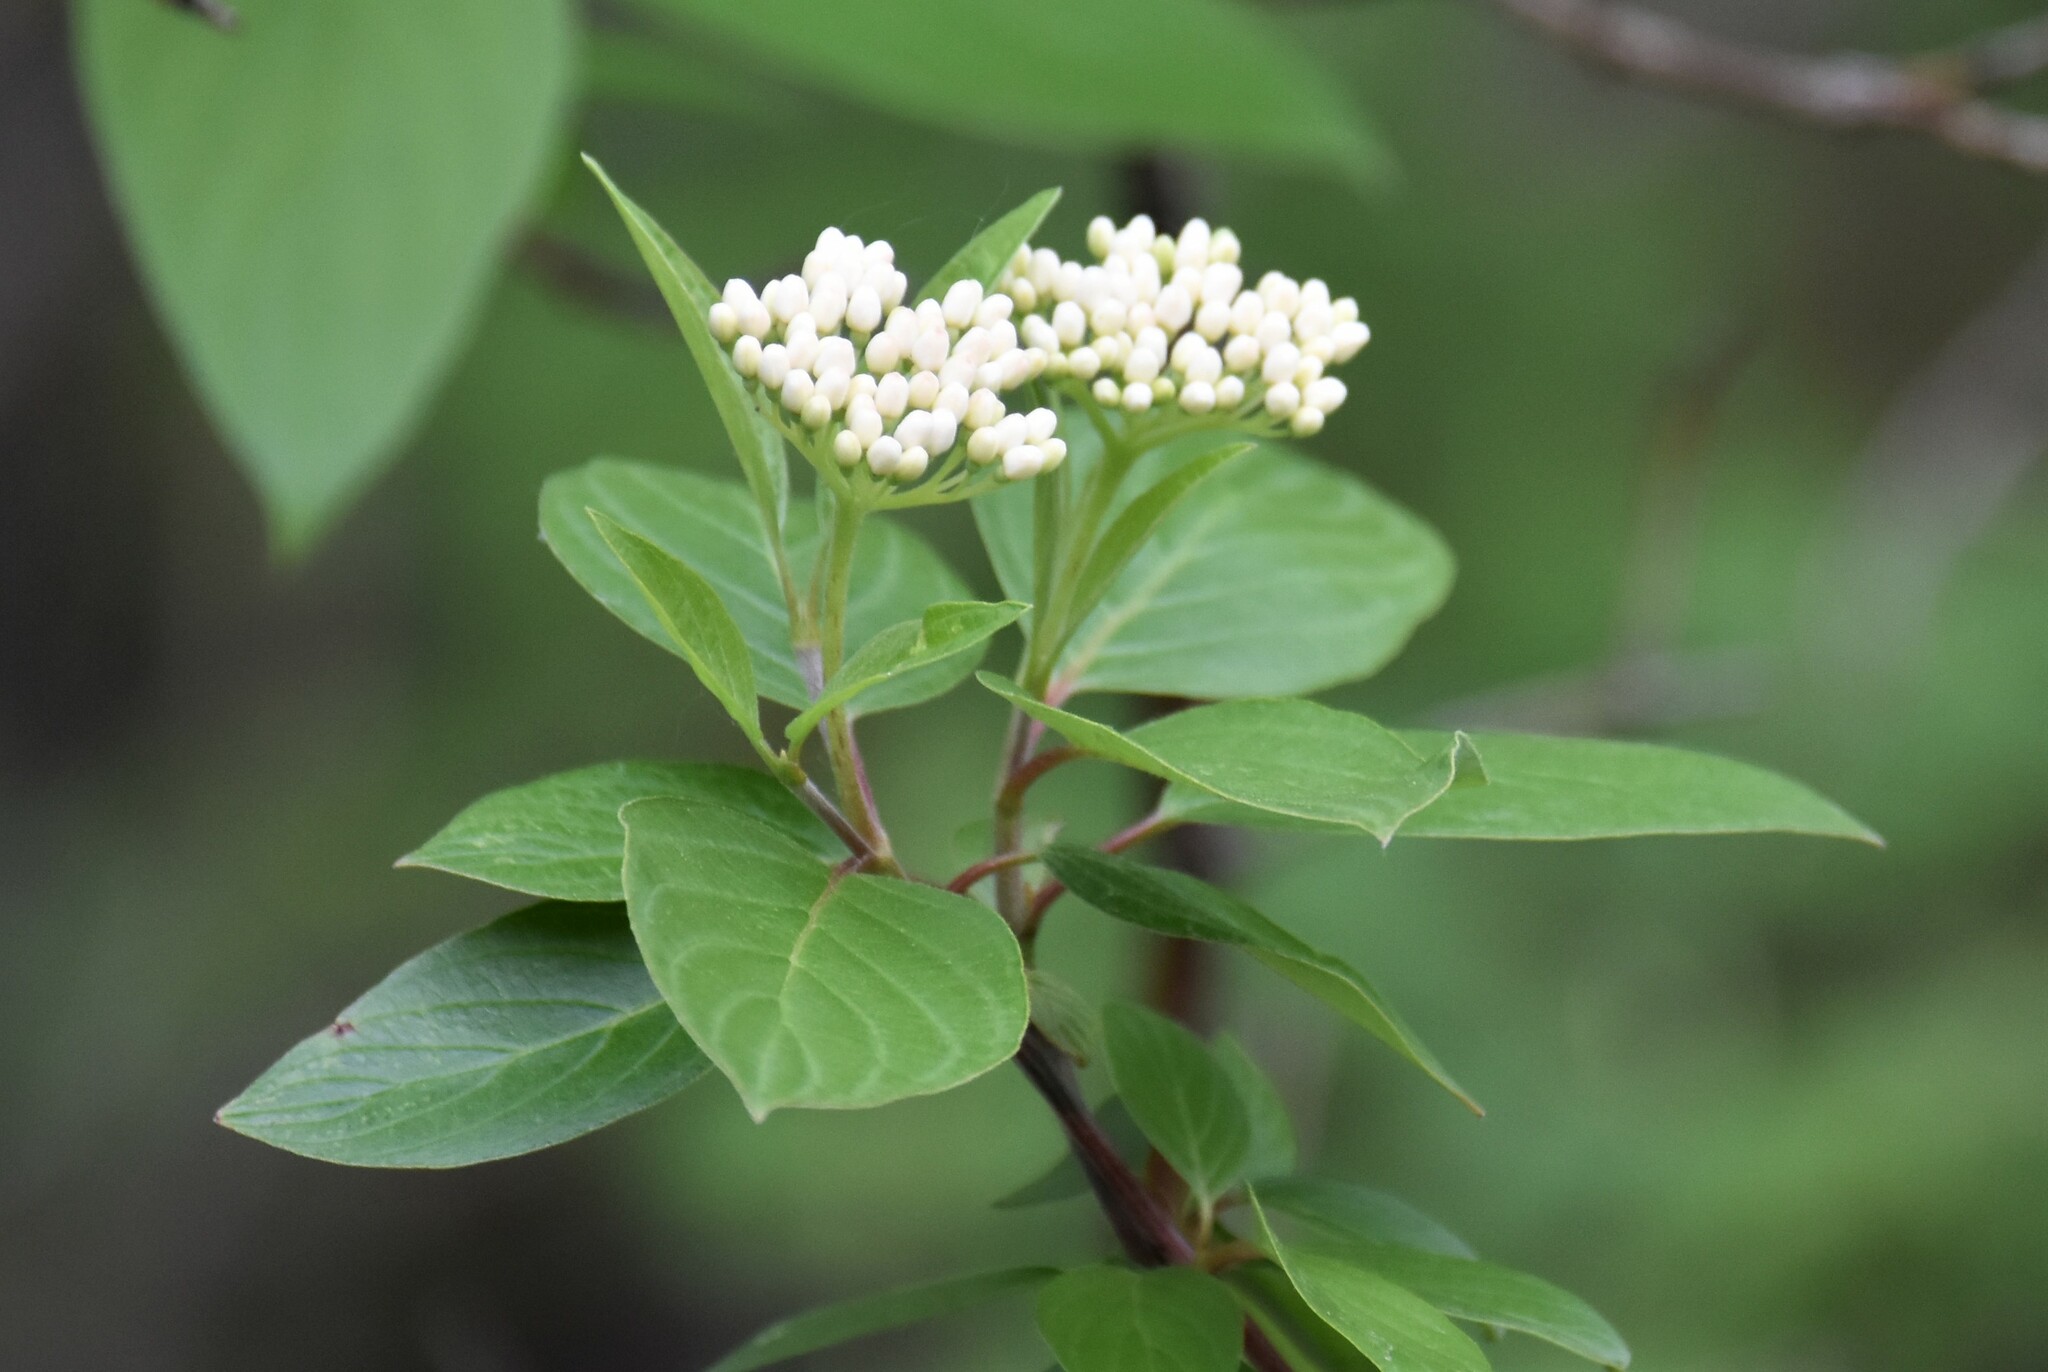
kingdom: Plantae
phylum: Tracheophyta
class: Magnoliopsida
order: Cornales
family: Cornaceae
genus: Cornus
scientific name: Cornus sericea
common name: Red-osier dogwood
